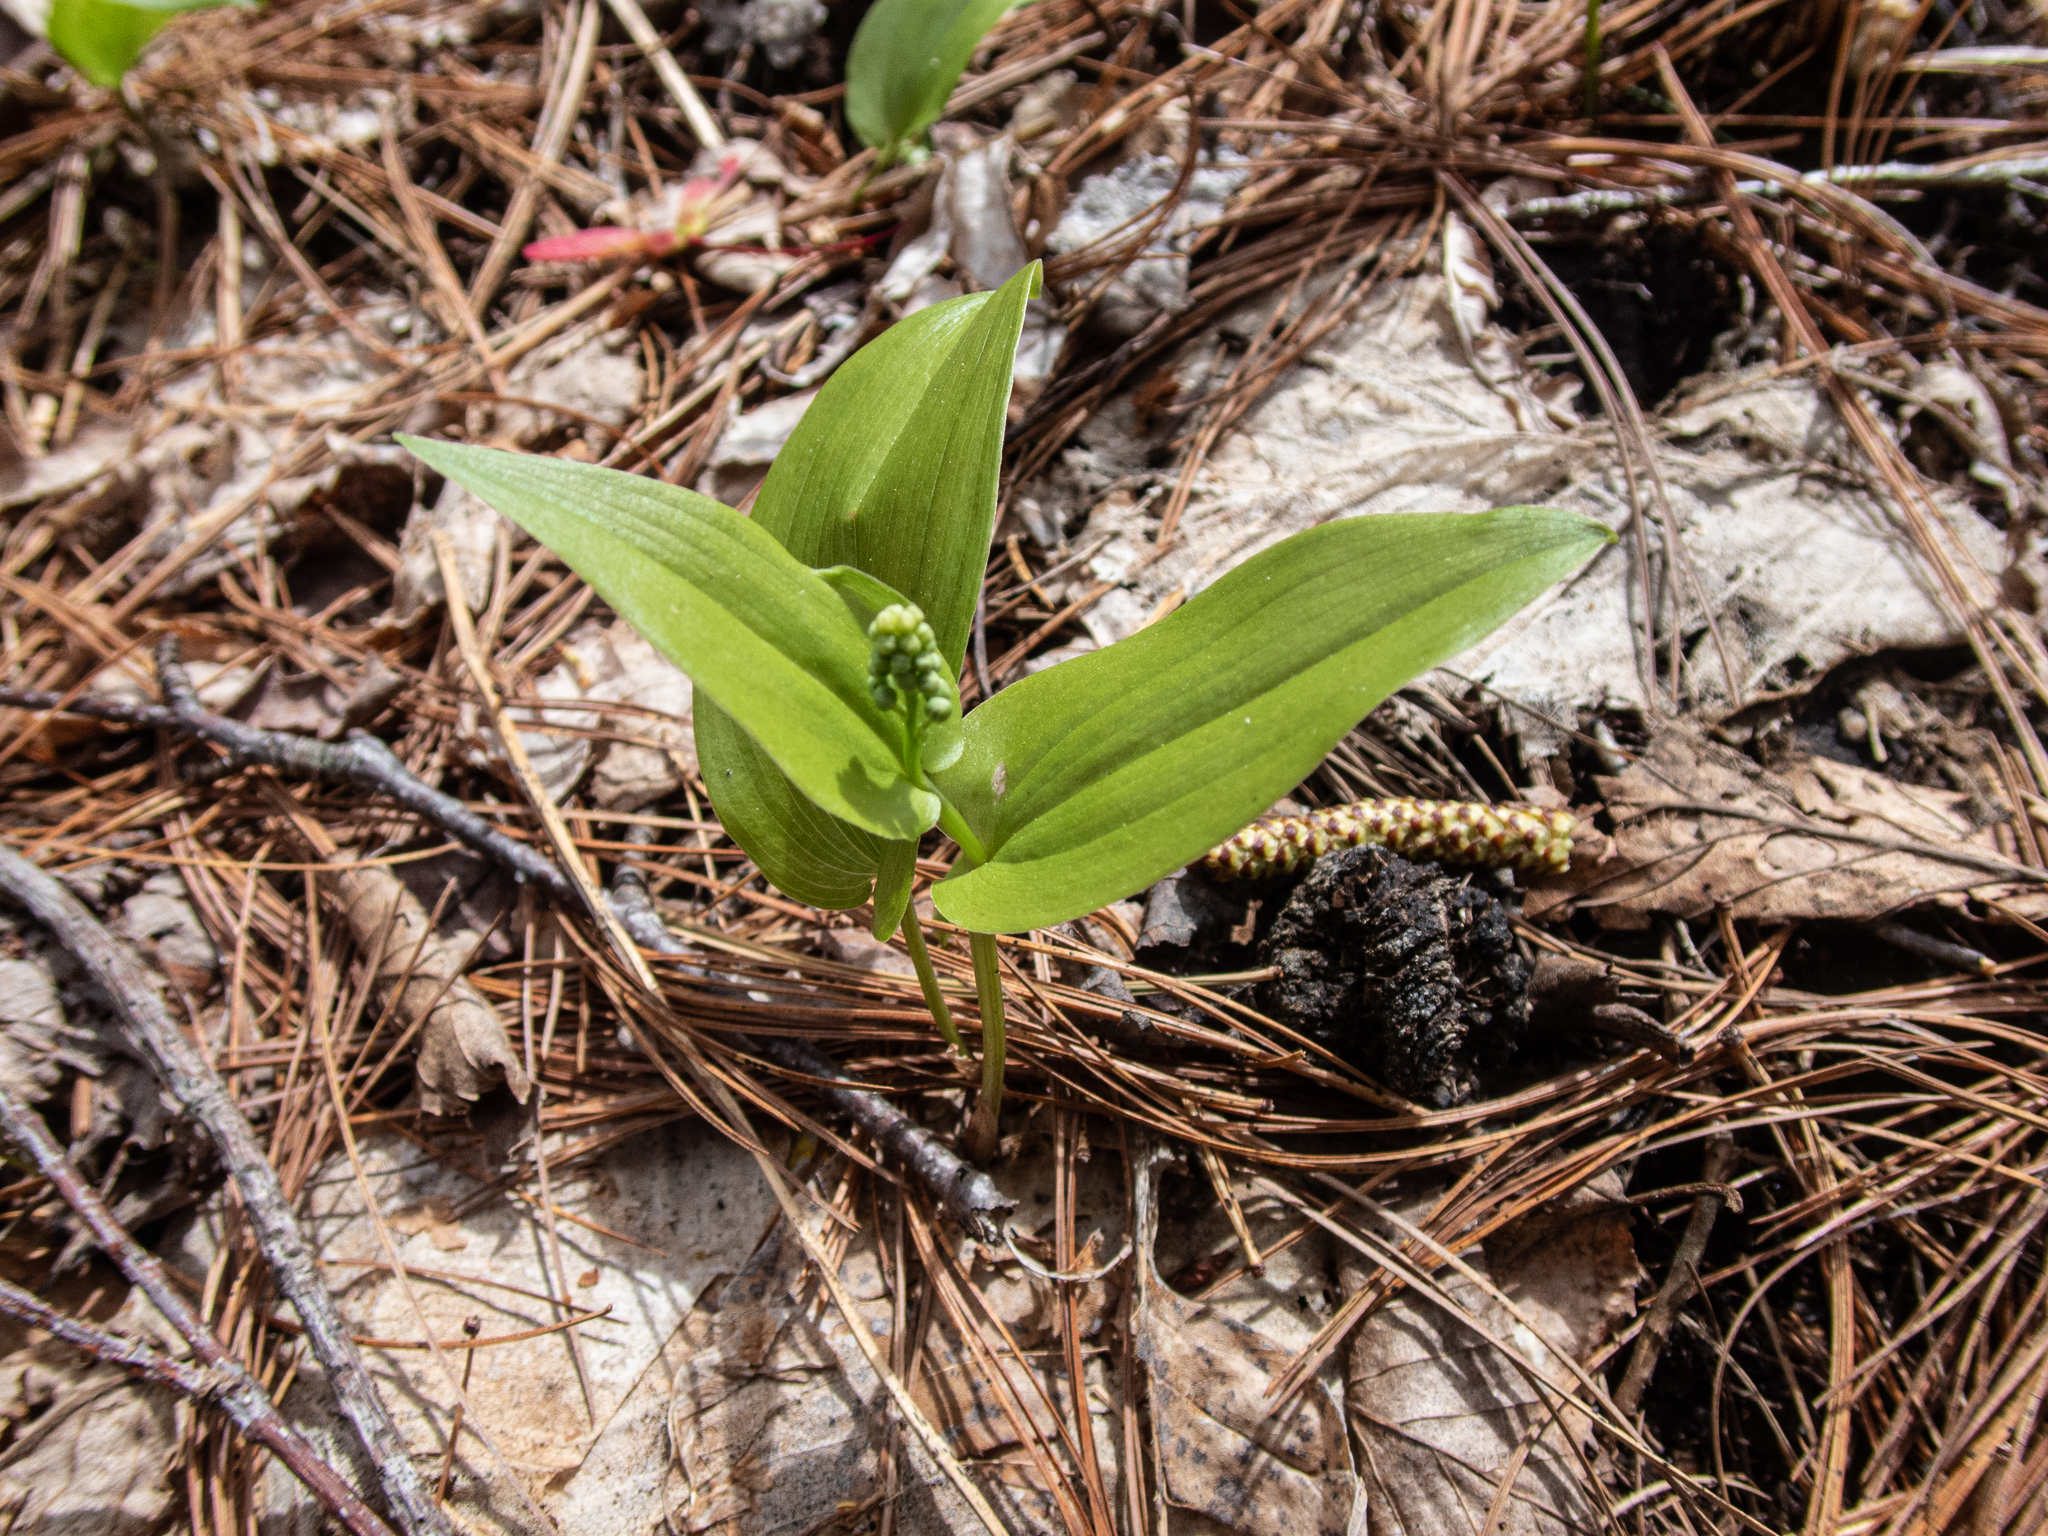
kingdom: Plantae
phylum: Tracheophyta
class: Liliopsida
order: Asparagales
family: Asparagaceae
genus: Maianthemum
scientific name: Maianthemum canadense
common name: False lily-of-the-valley
